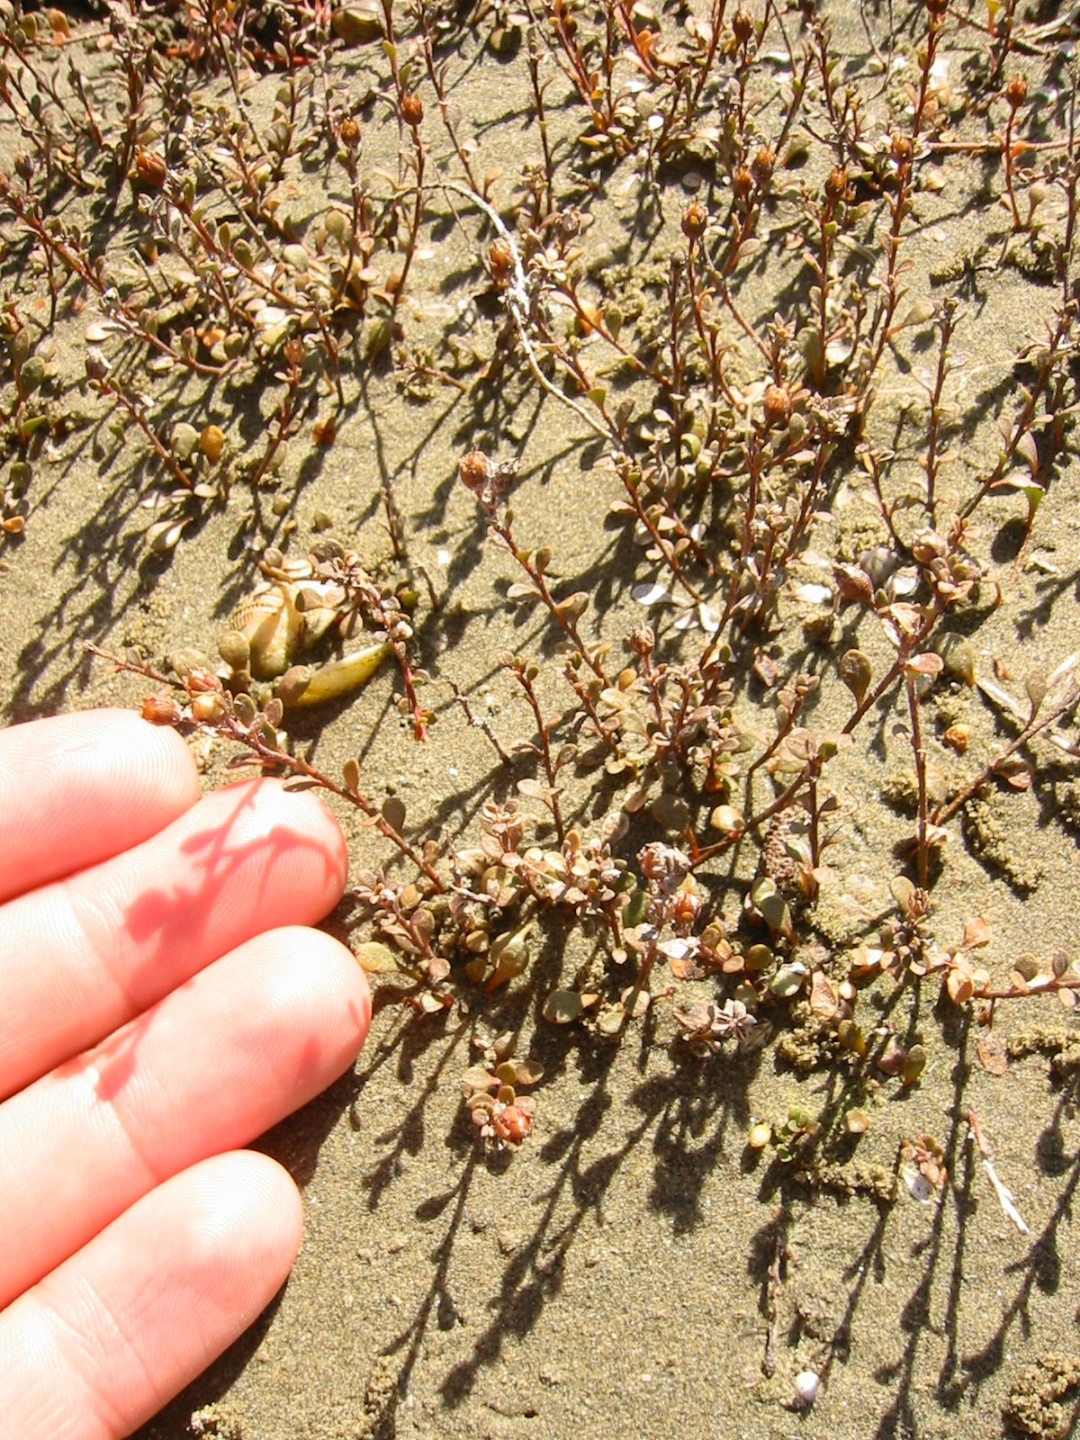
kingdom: Plantae
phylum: Tracheophyta
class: Magnoliopsida
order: Ericales
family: Primulaceae
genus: Samolus
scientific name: Samolus repens
